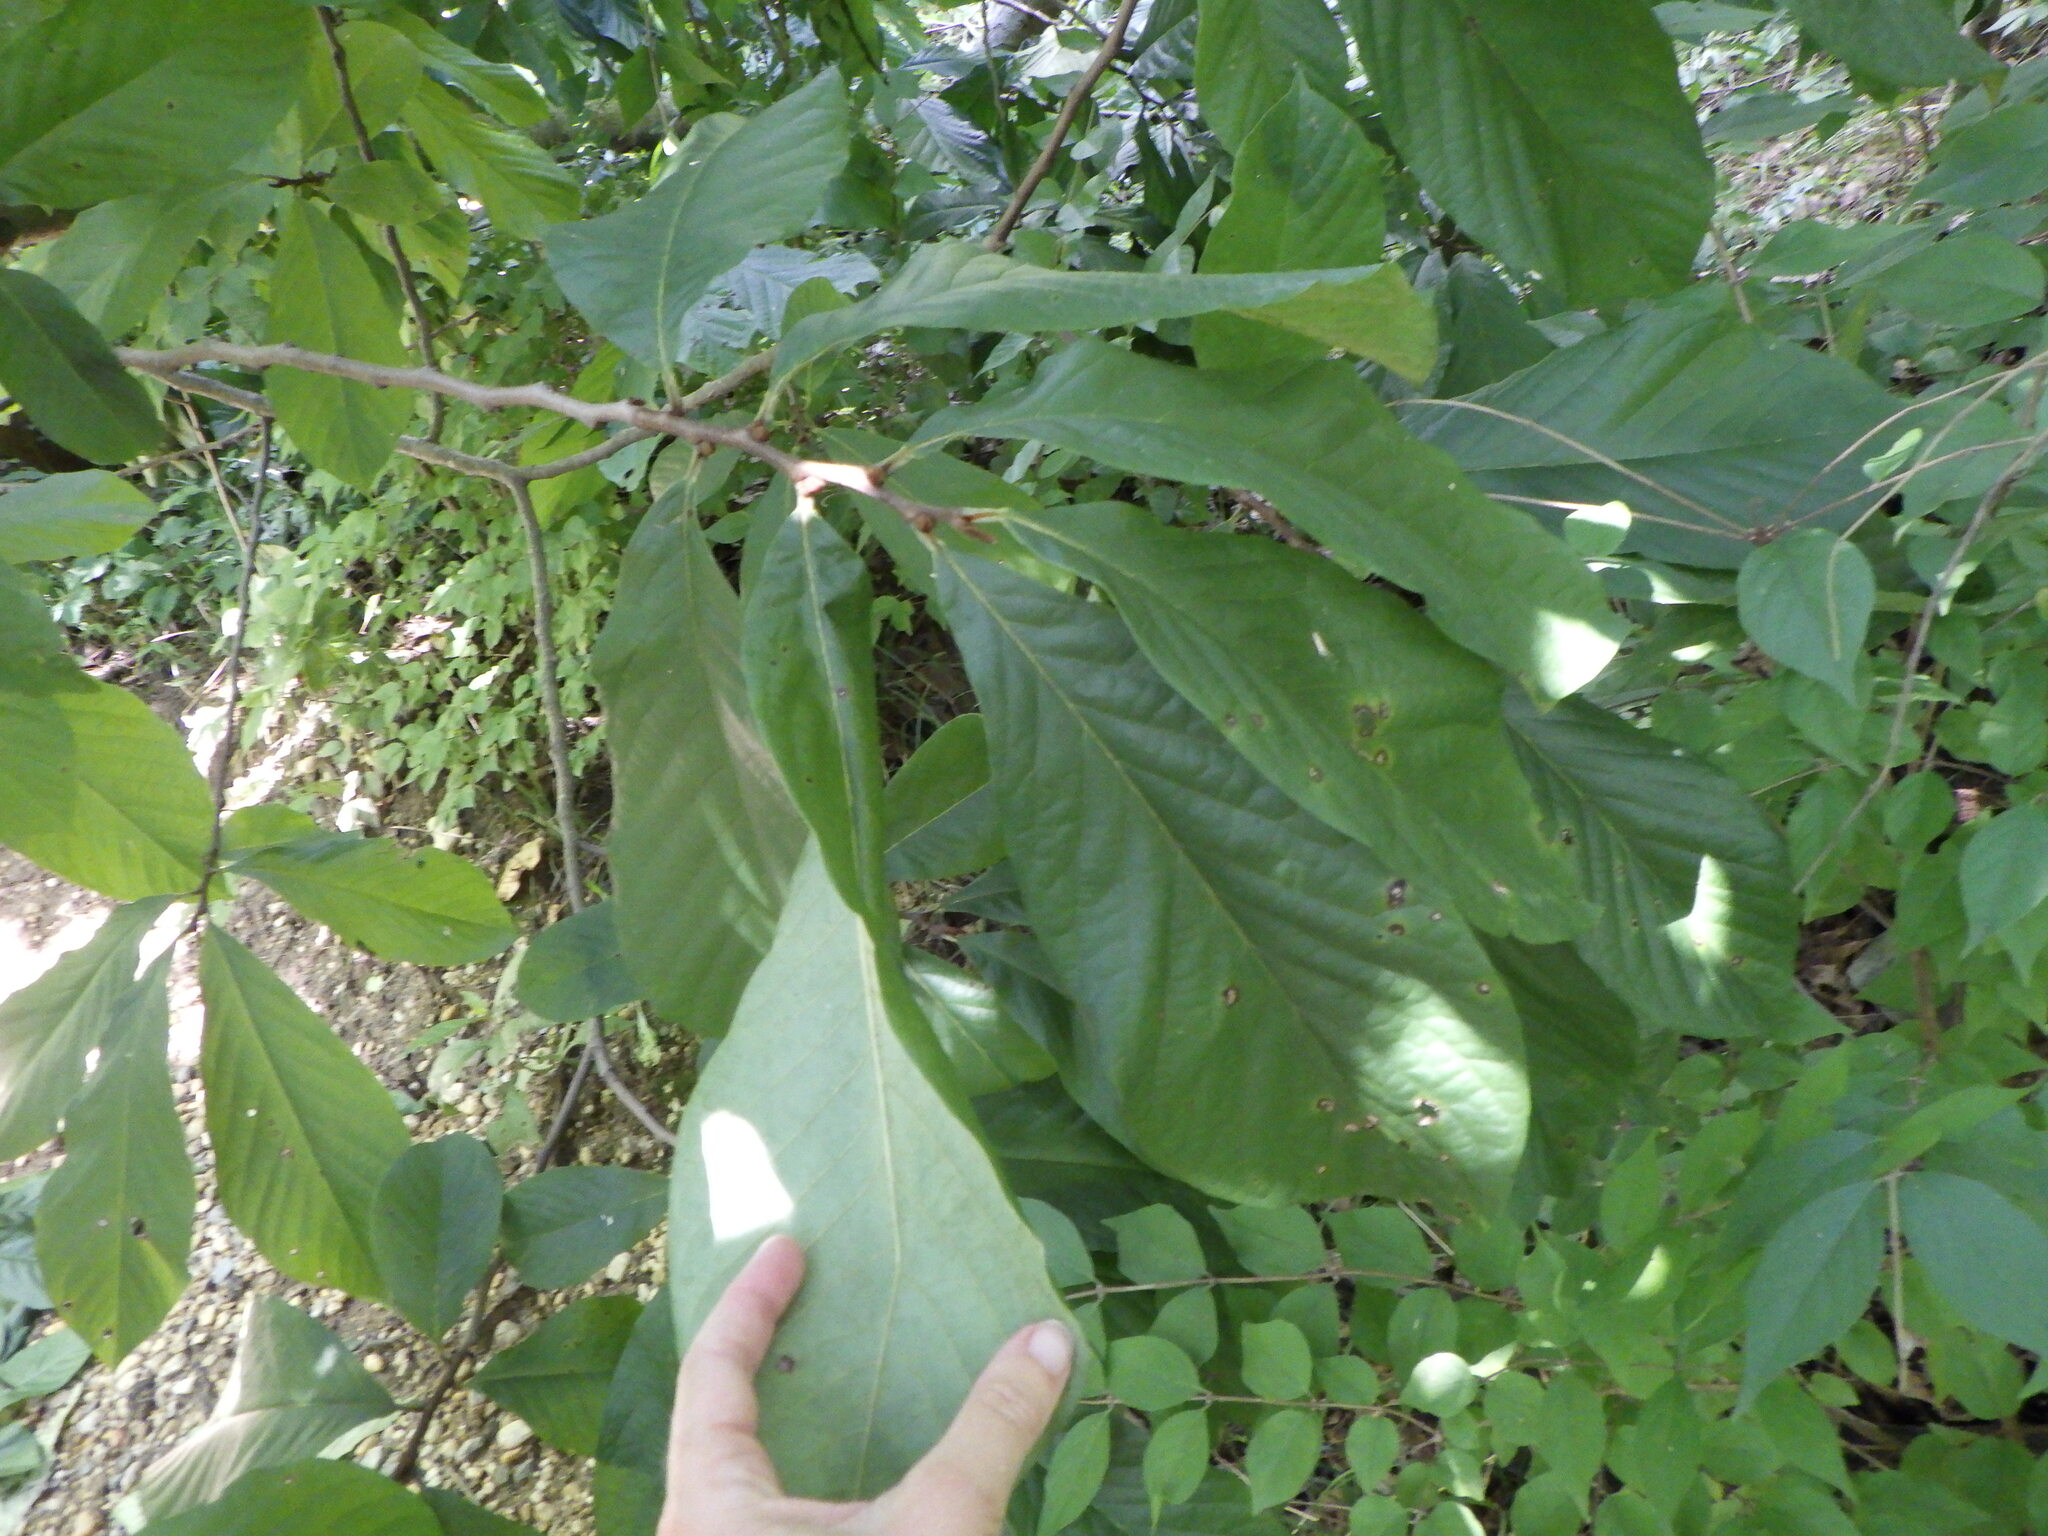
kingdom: Plantae
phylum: Tracheophyta
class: Magnoliopsida
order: Magnoliales
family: Annonaceae
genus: Asimina
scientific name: Asimina triloba
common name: Dog-banana
